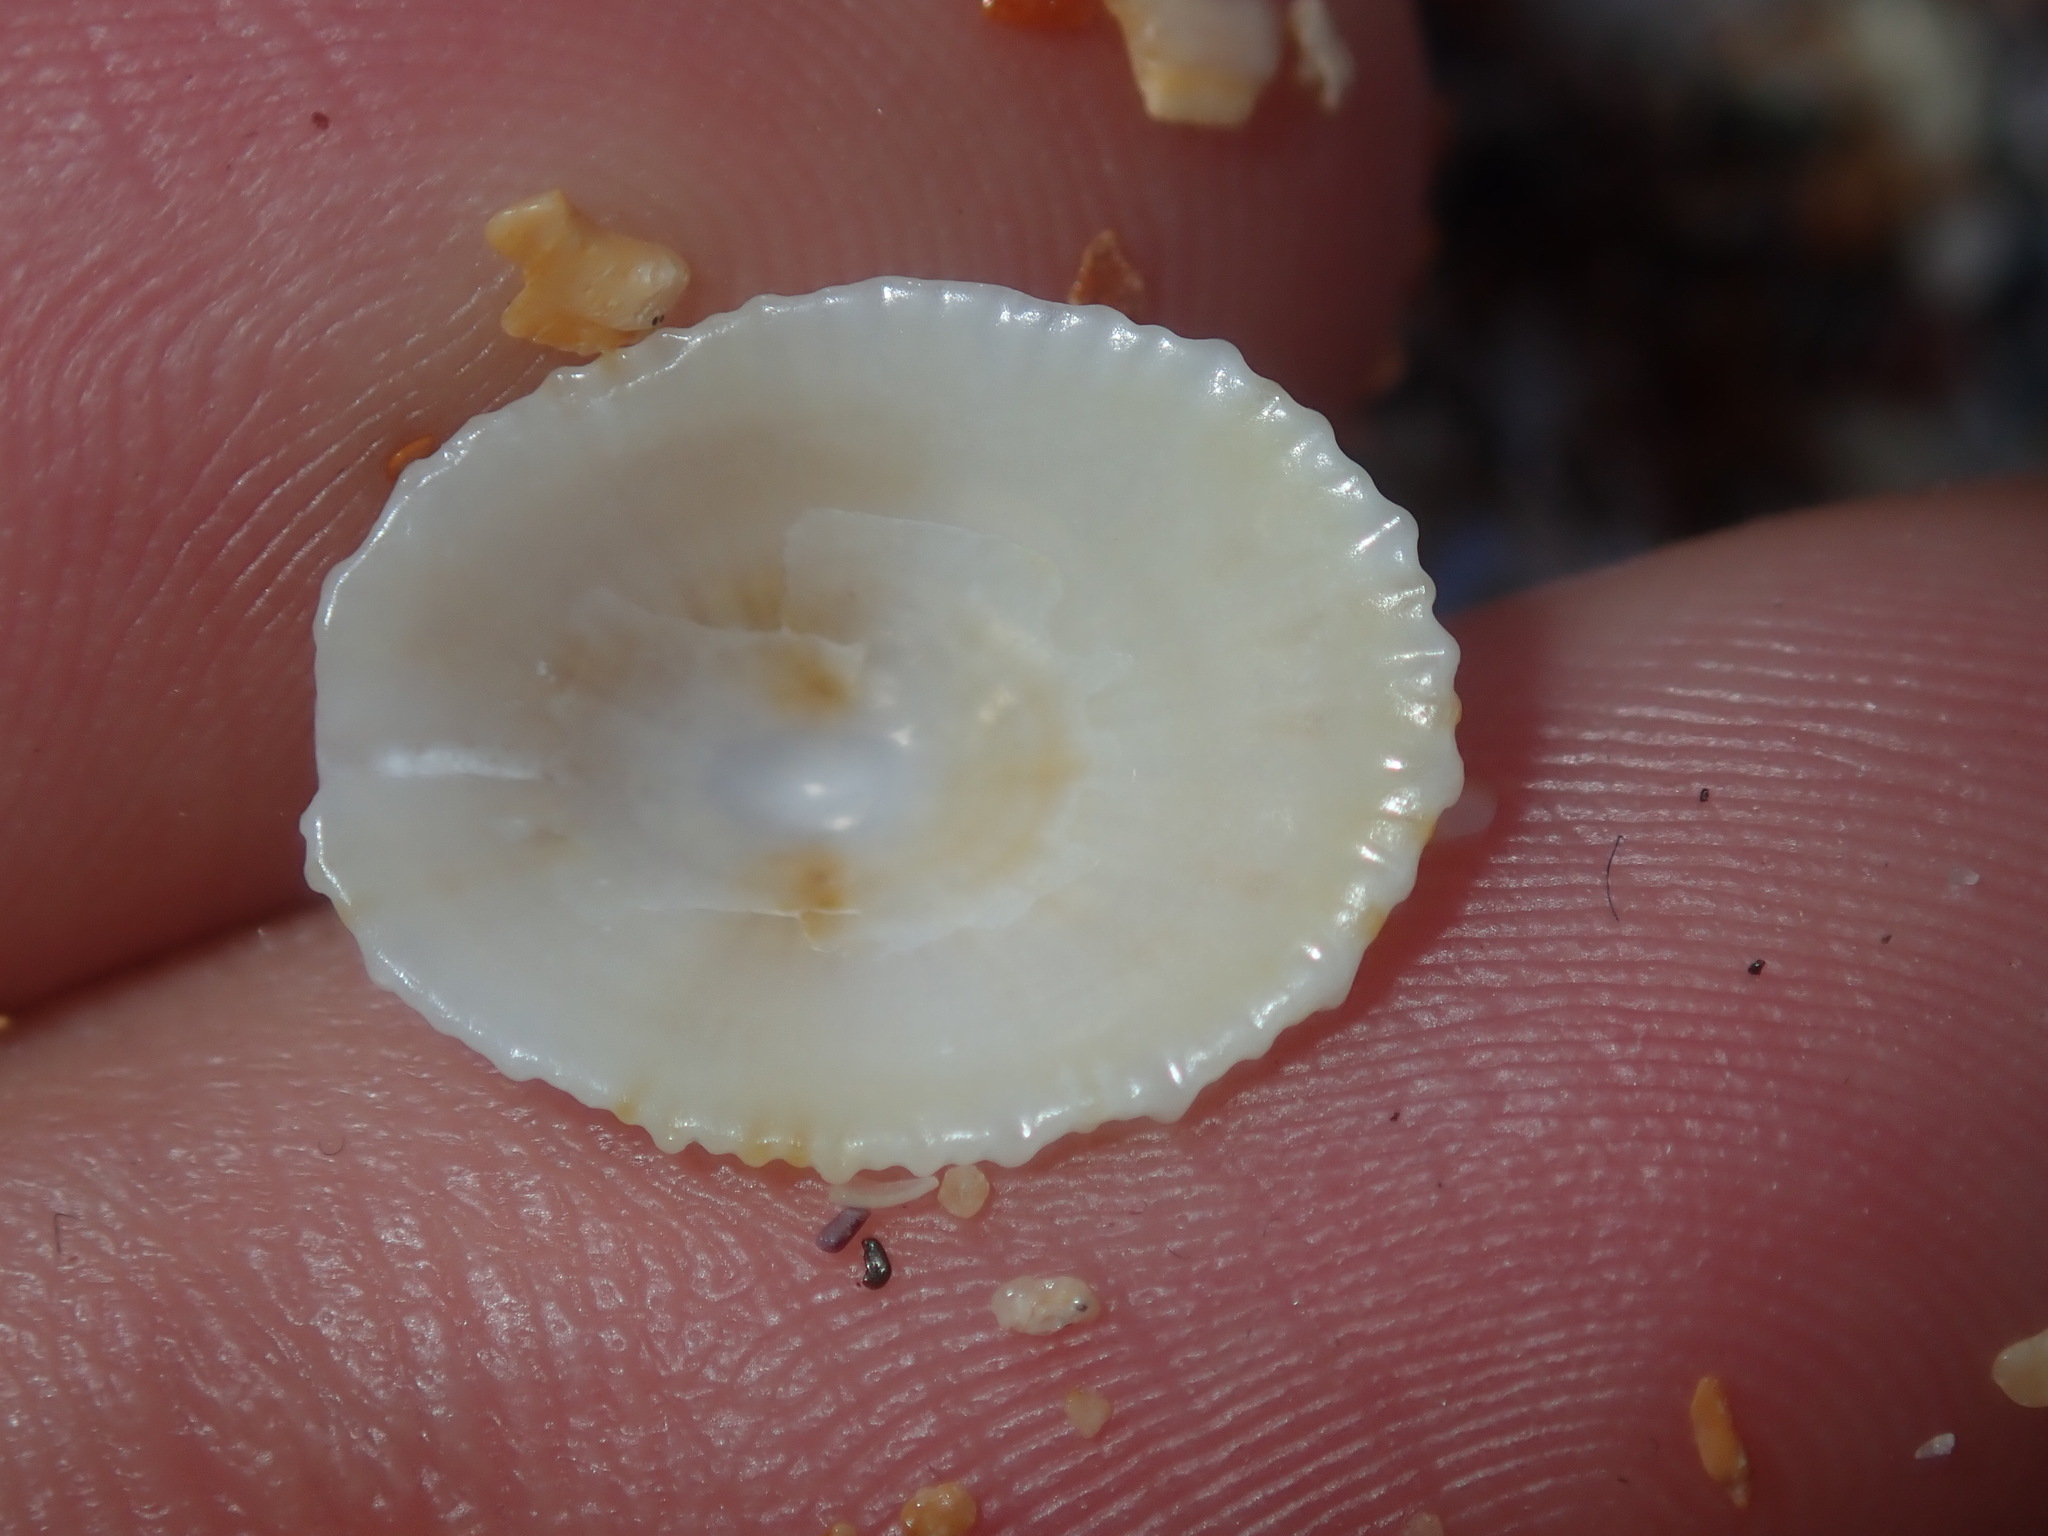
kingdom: Animalia
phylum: Mollusca
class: Gastropoda
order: Lepetellida
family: Fissurellidae
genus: Montfortula
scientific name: Montfortula rugosa
